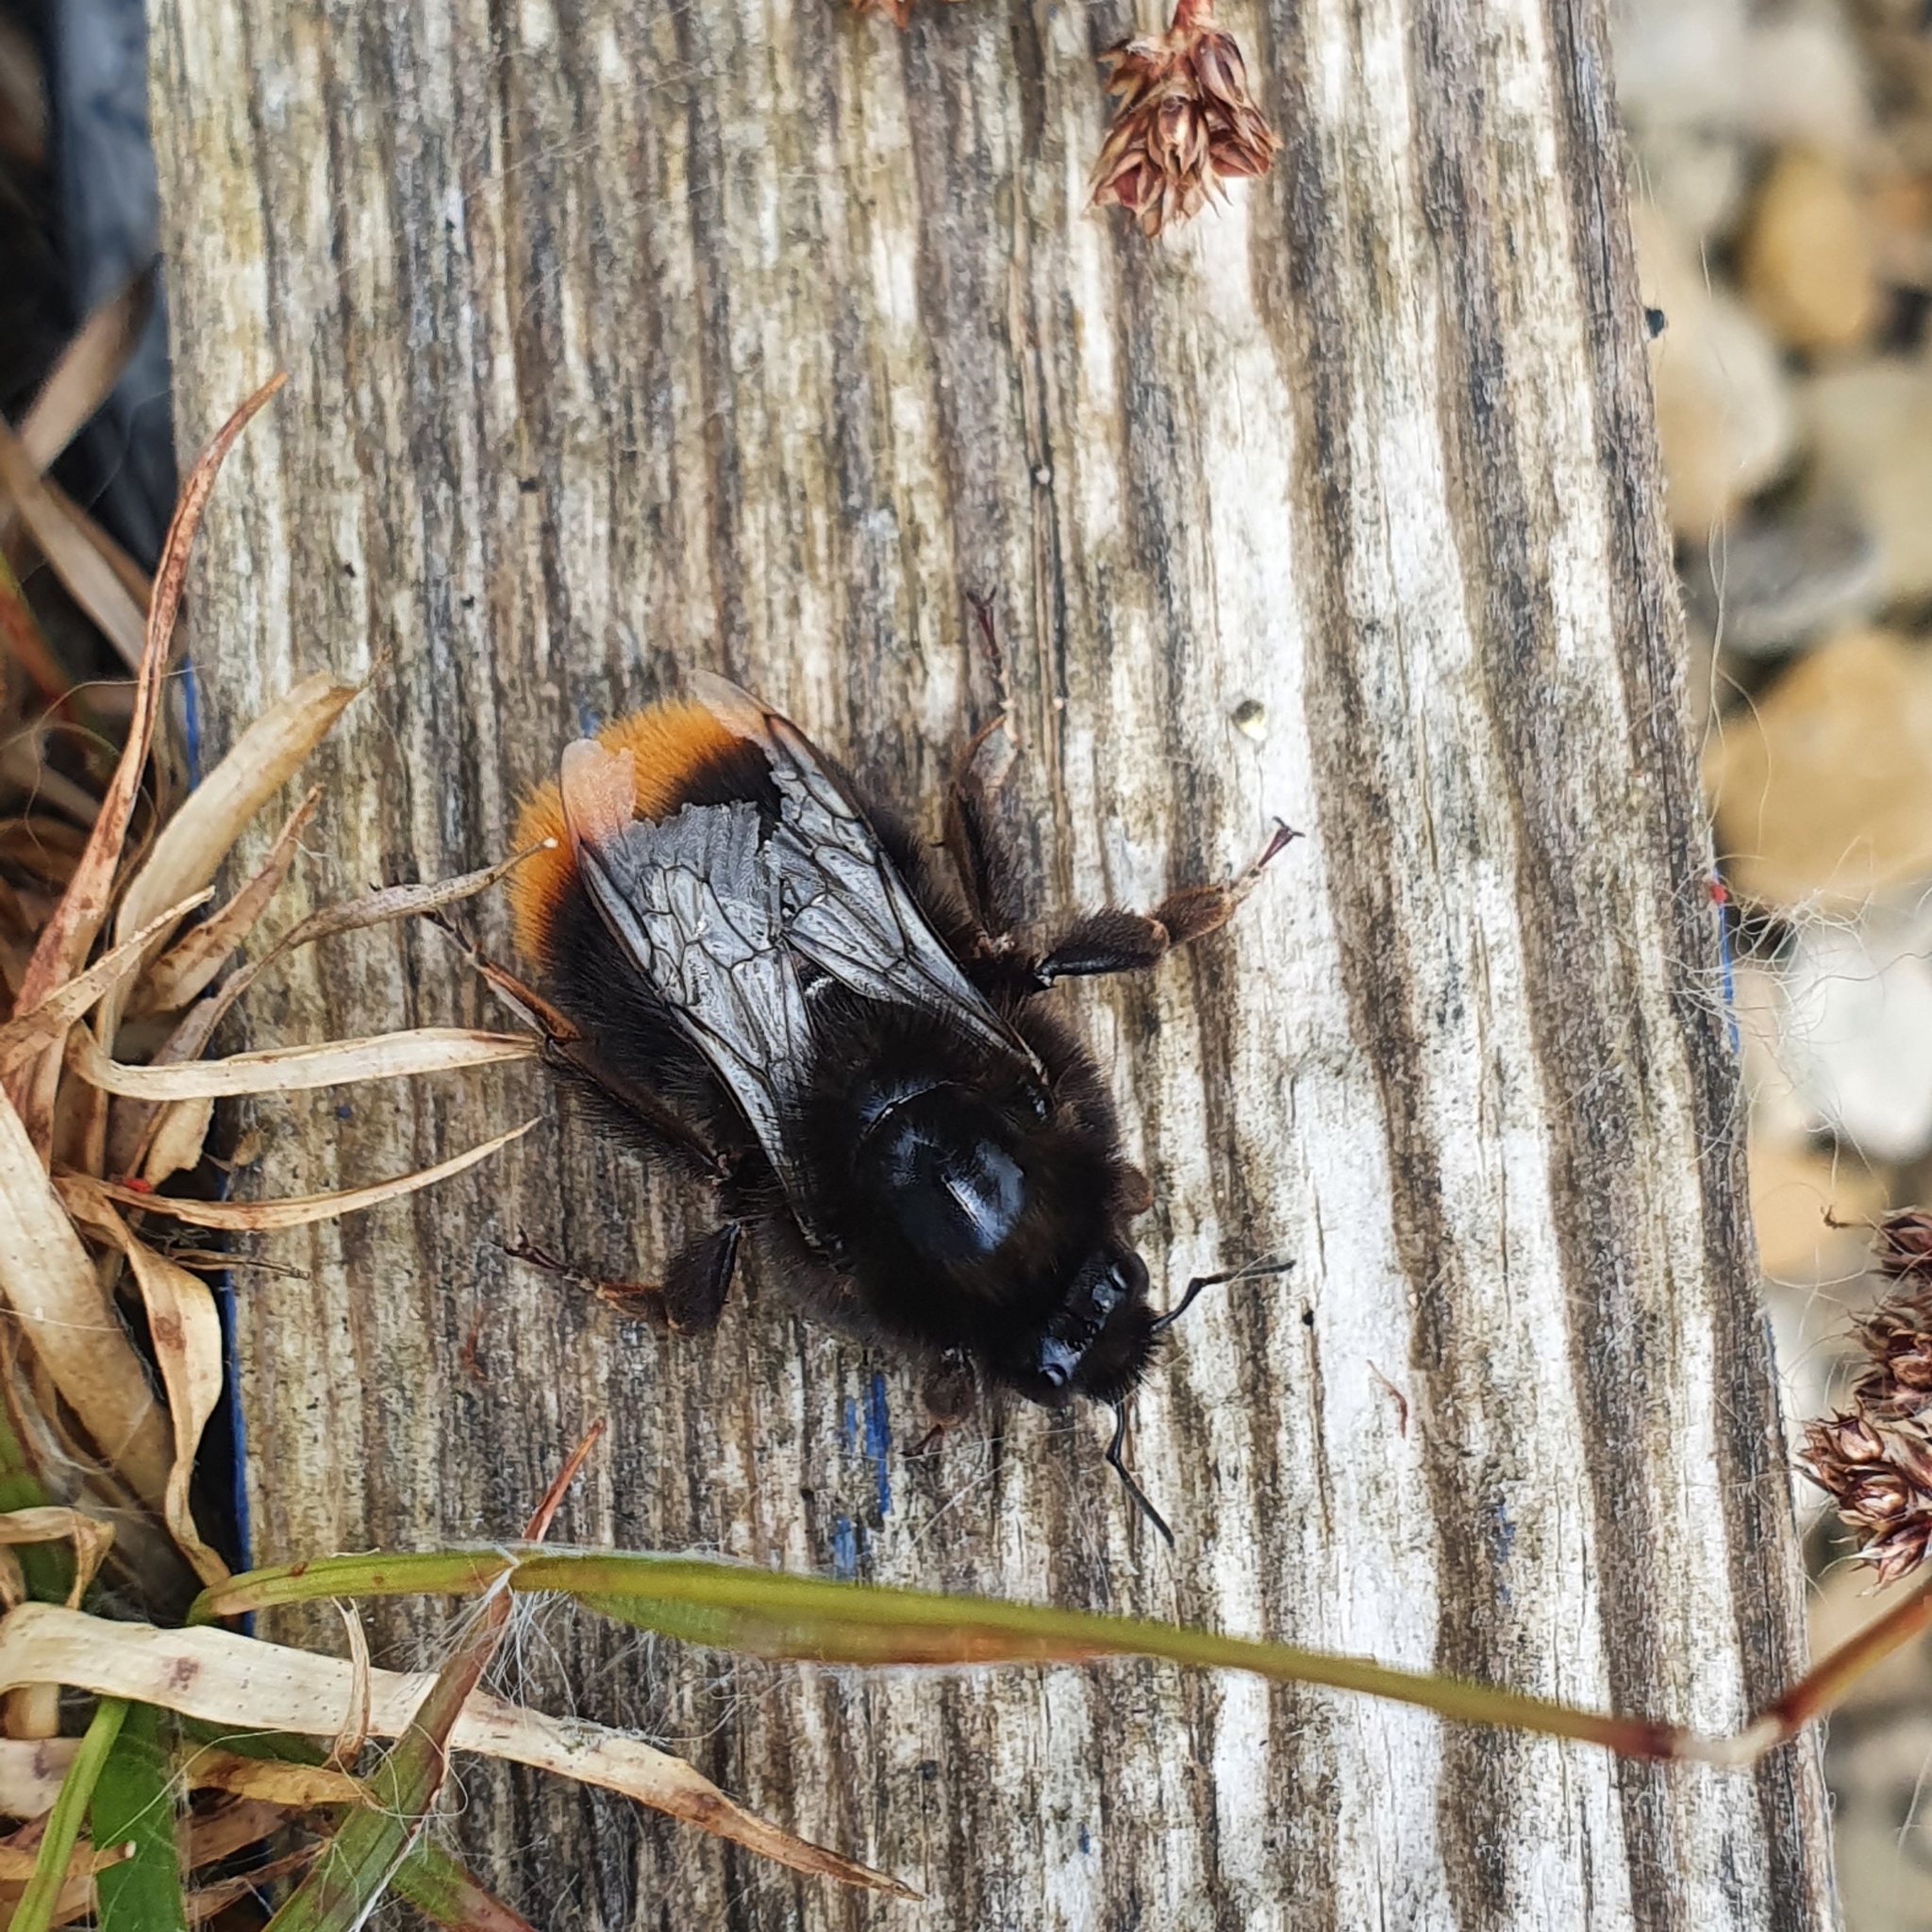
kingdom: Animalia
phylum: Arthropoda
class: Insecta
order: Hymenoptera
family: Apidae
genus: Bombus
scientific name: Bombus lapidarius
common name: Large red-tailed humble-bee
